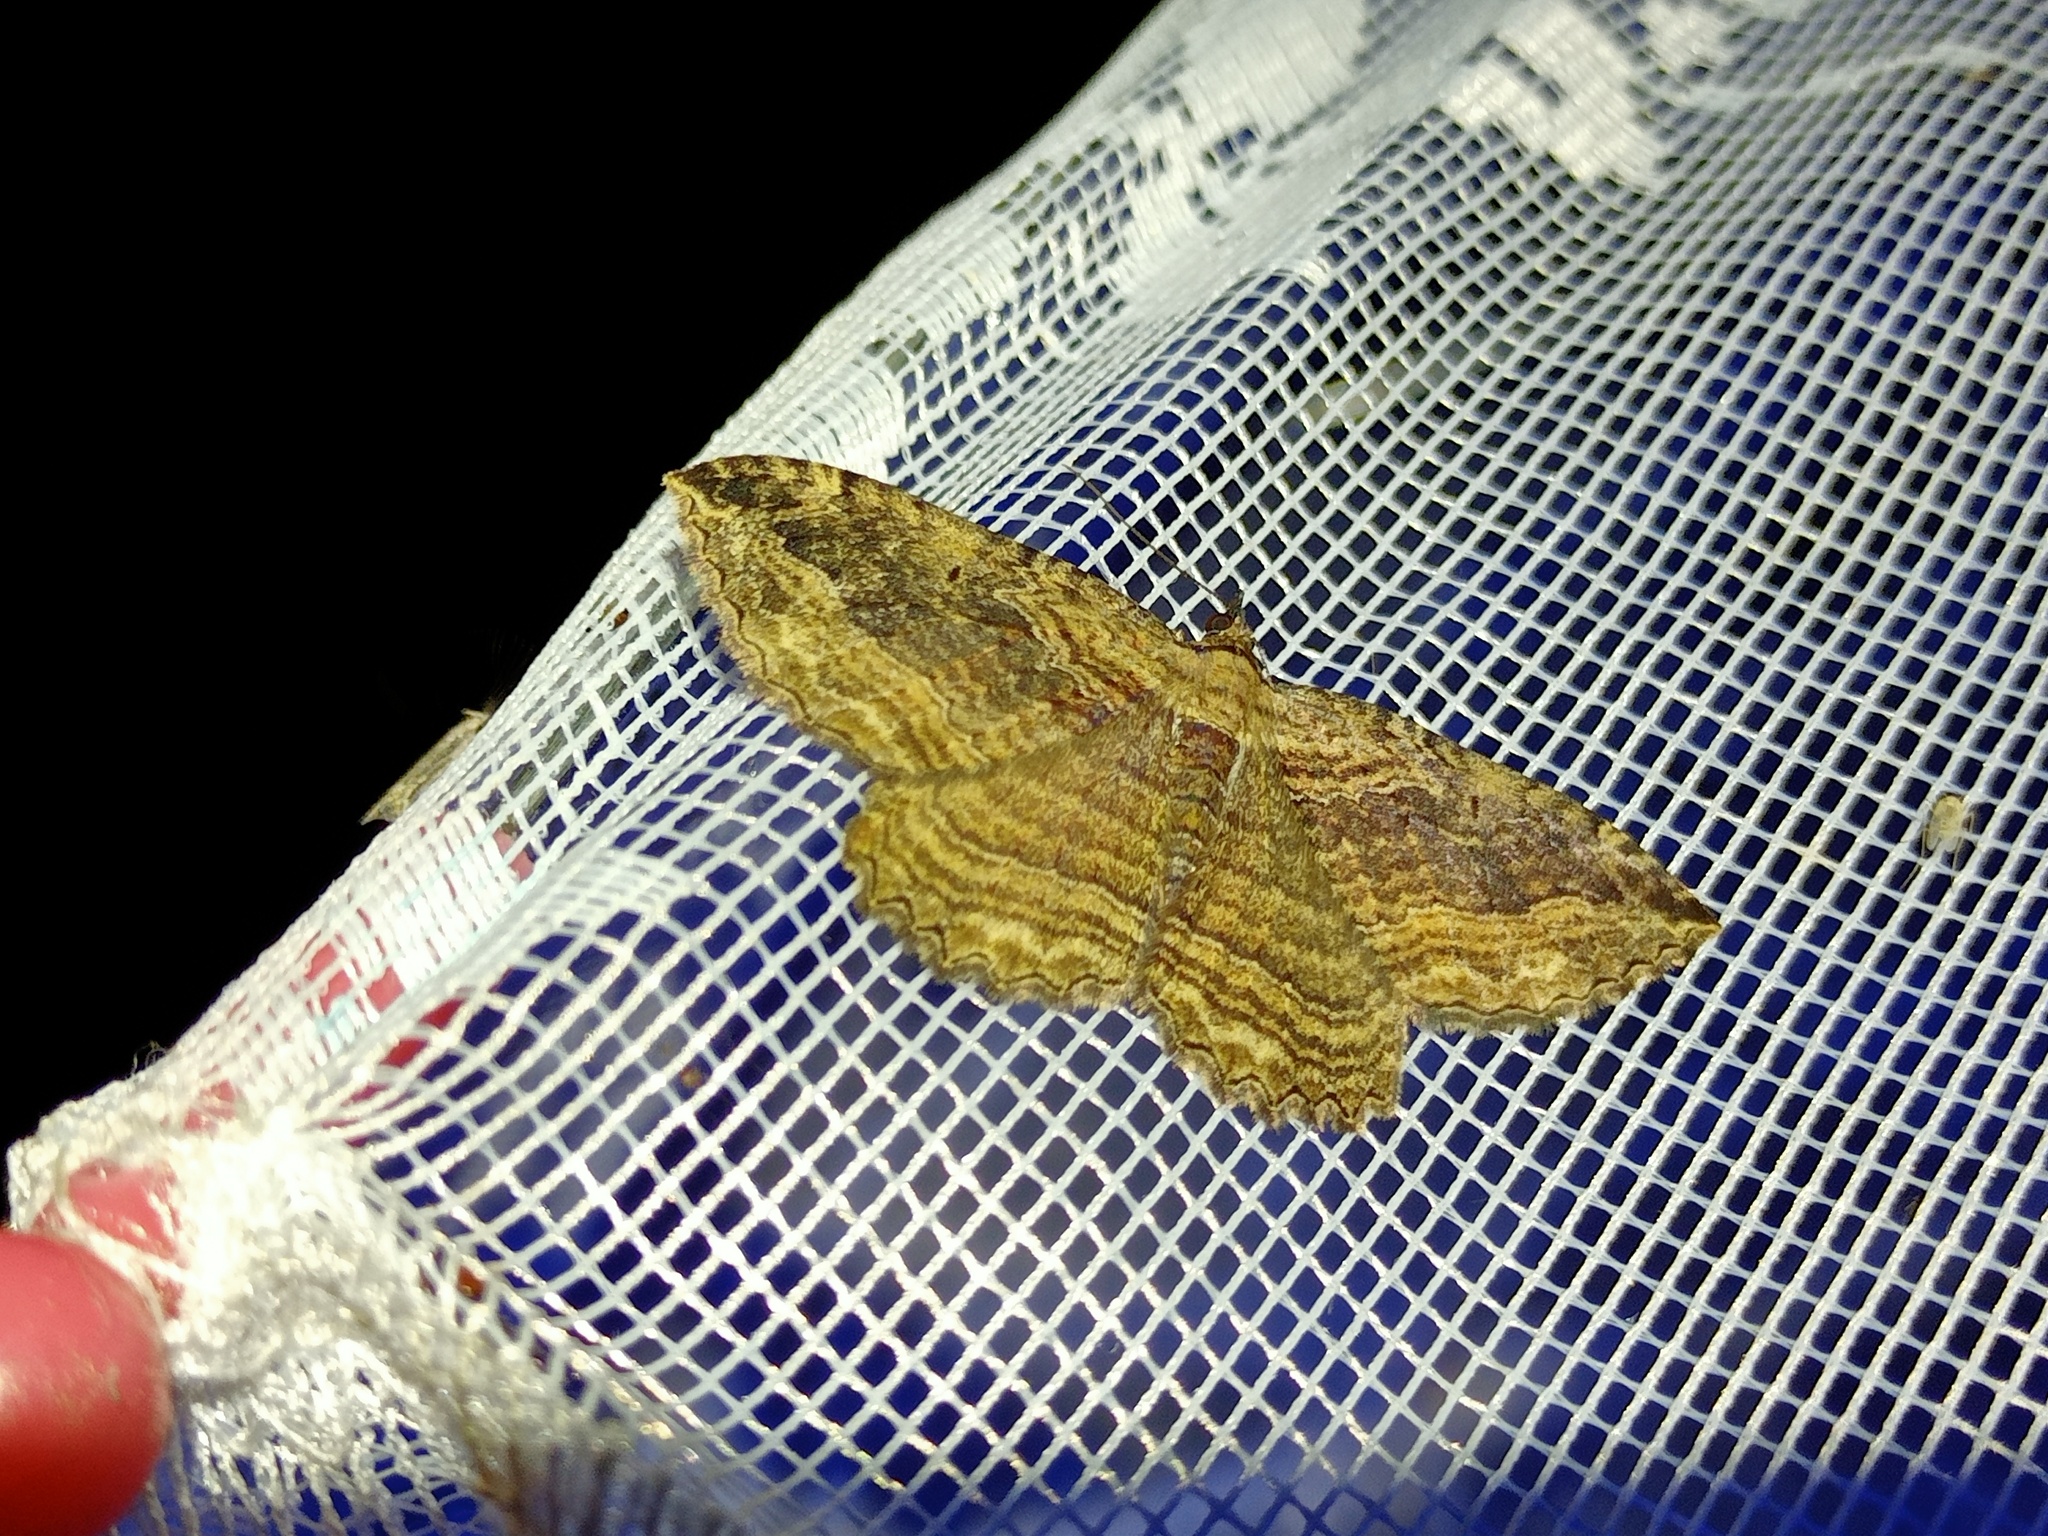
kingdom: Animalia
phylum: Arthropoda
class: Insecta
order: Lepidoptera
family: Geometridae
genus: Philereme
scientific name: Philereme transversata
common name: Dark umber
